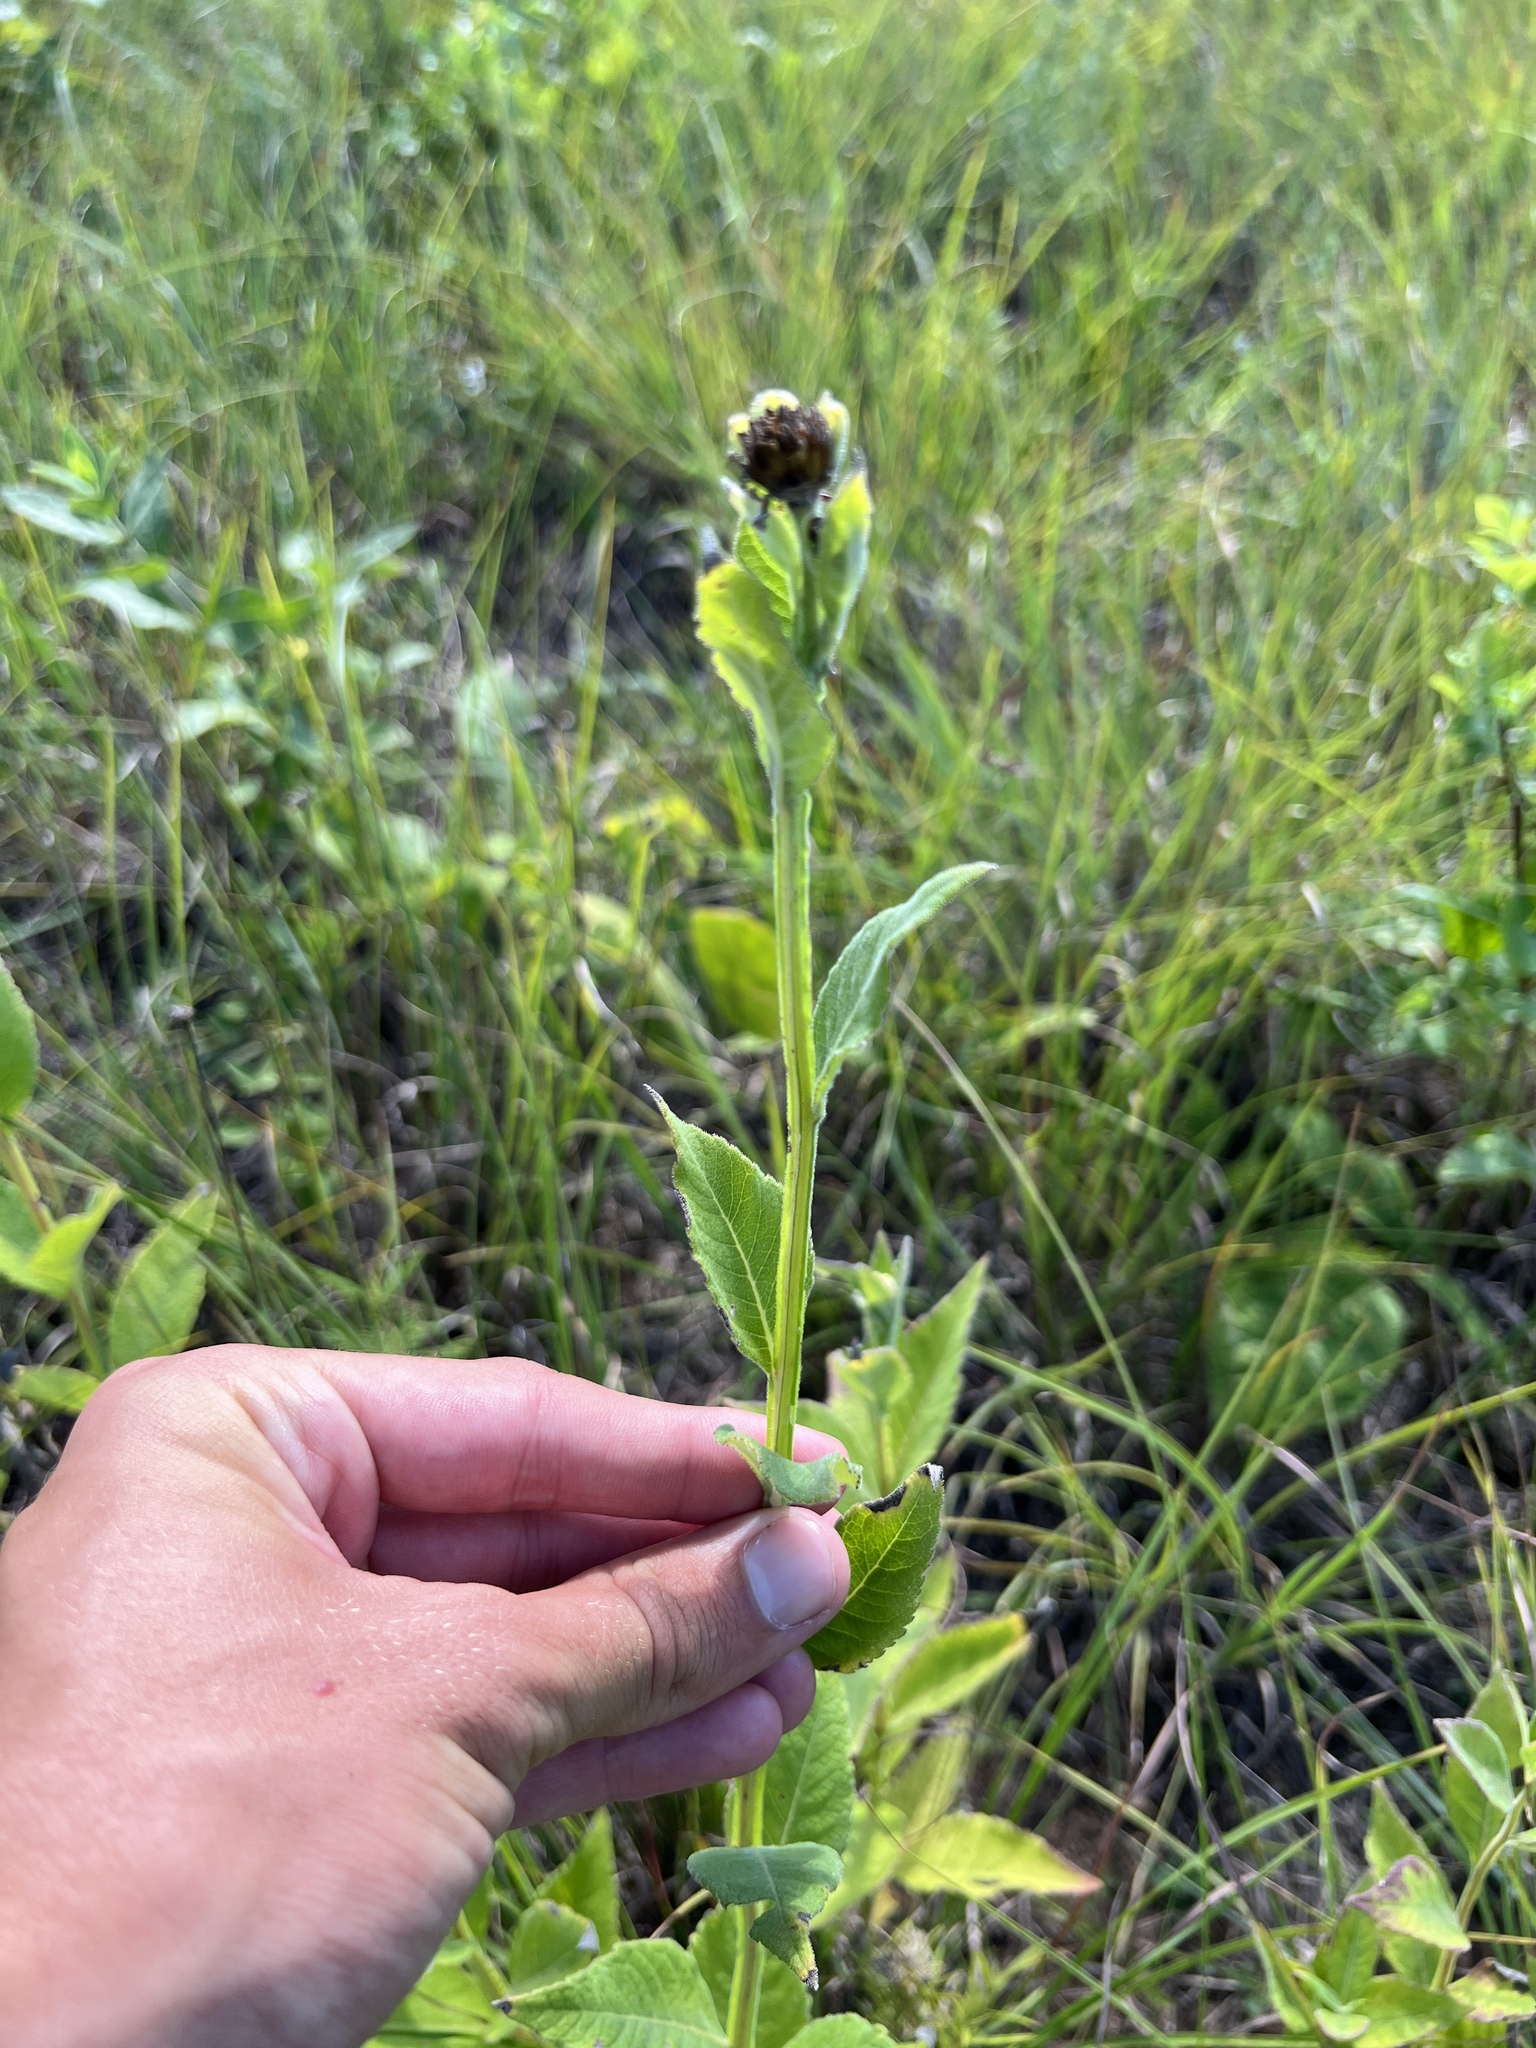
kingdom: Plantae
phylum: Tracheophyta
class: Magnoliopsida
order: Asterales
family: Asteraceae
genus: Verbesina
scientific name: Verbesina helianthoides
